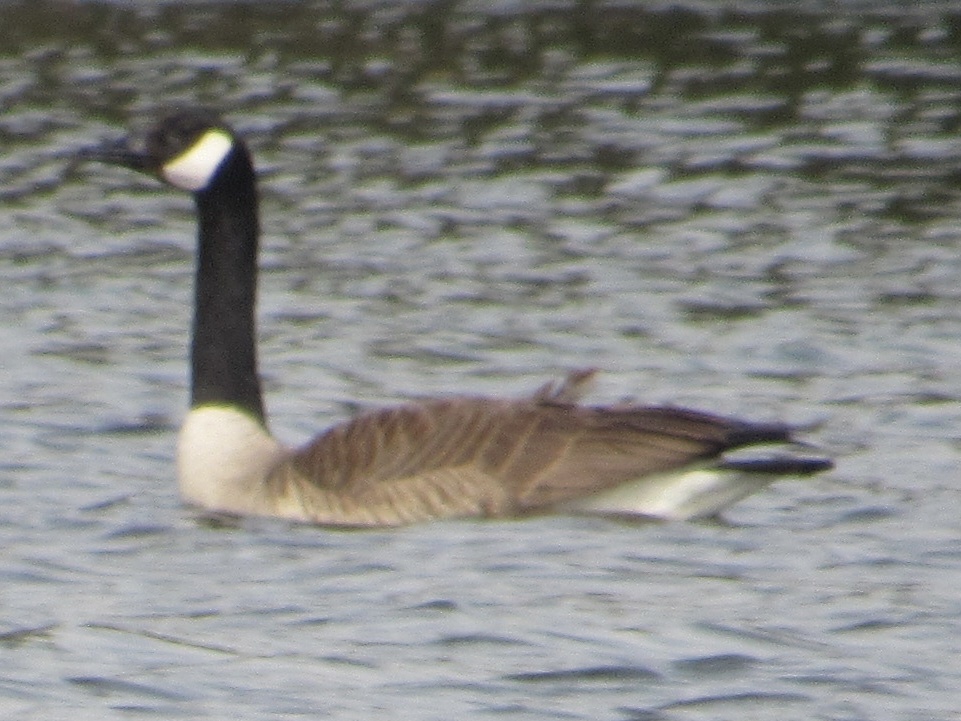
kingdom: Animalia
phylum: Chordata
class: Aves
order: Anseriformes
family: Anatidae
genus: Branta
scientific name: Branta canadensis
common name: Canada goose
